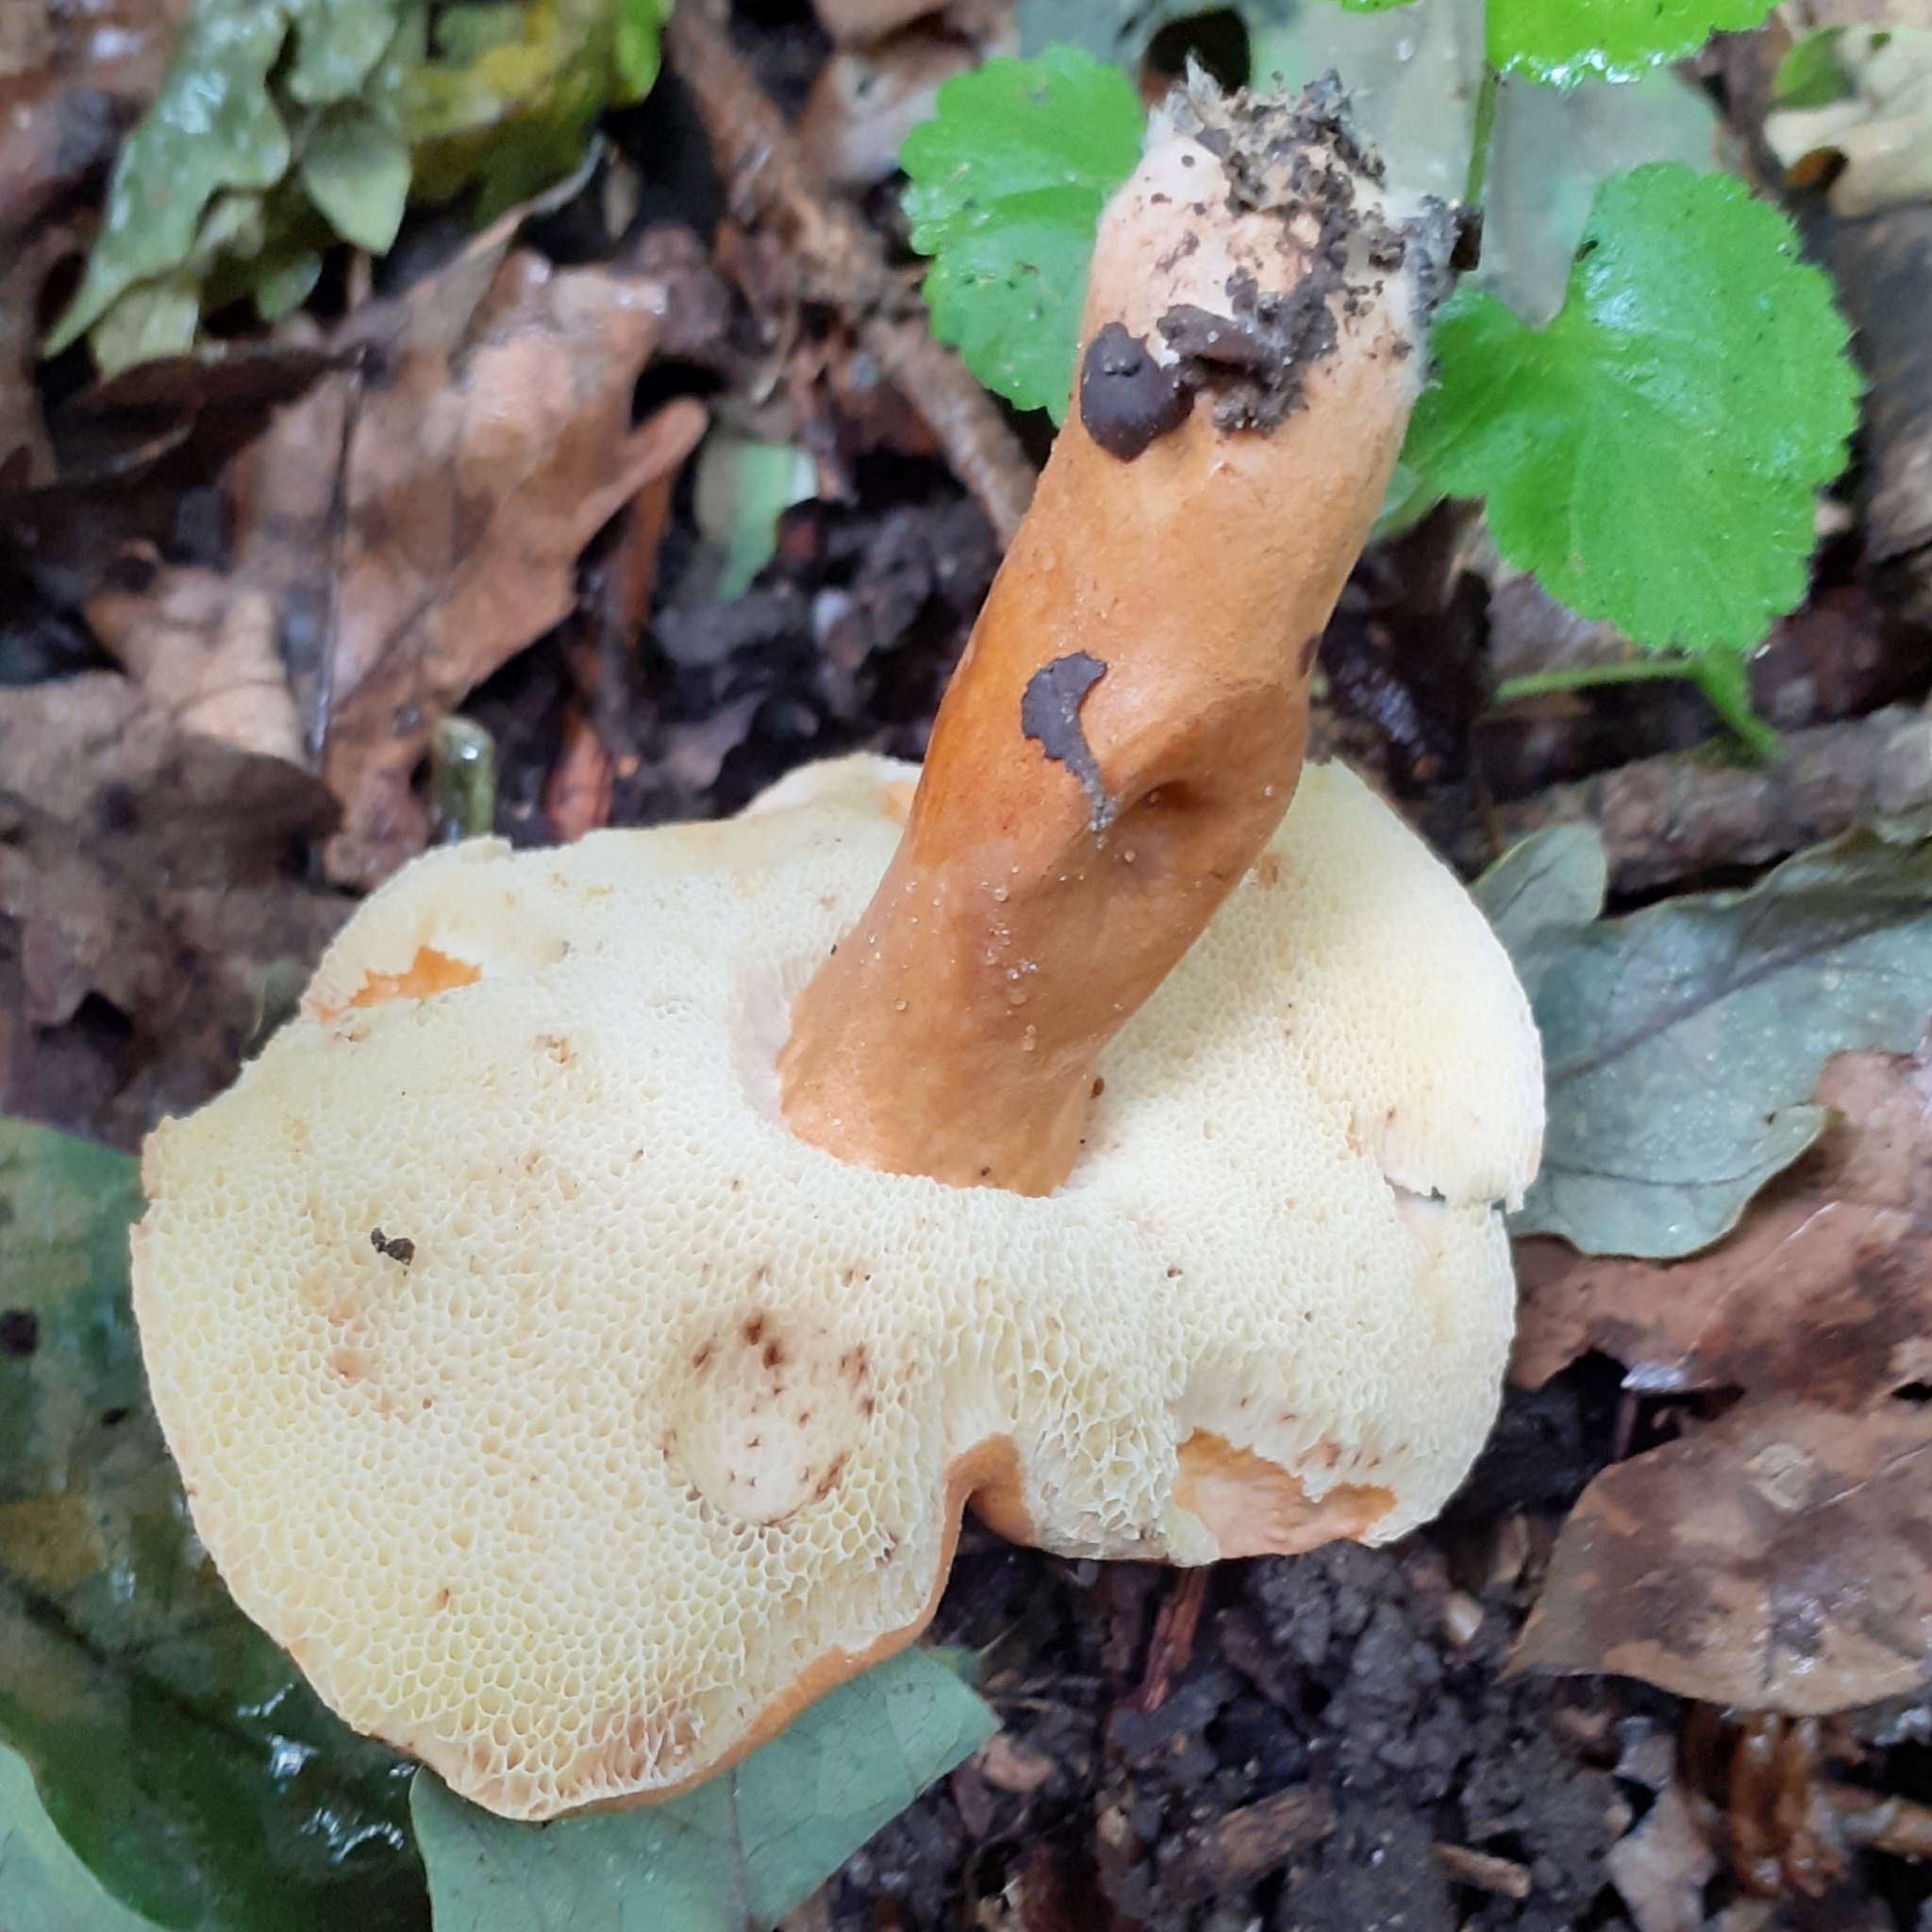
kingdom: Fungi
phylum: Basidiomycota
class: Agaricomycetes
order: Boletales
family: Gyroporaceae
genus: Gyroporus
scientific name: Gyroporus castaneus
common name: Chestnut bolete
